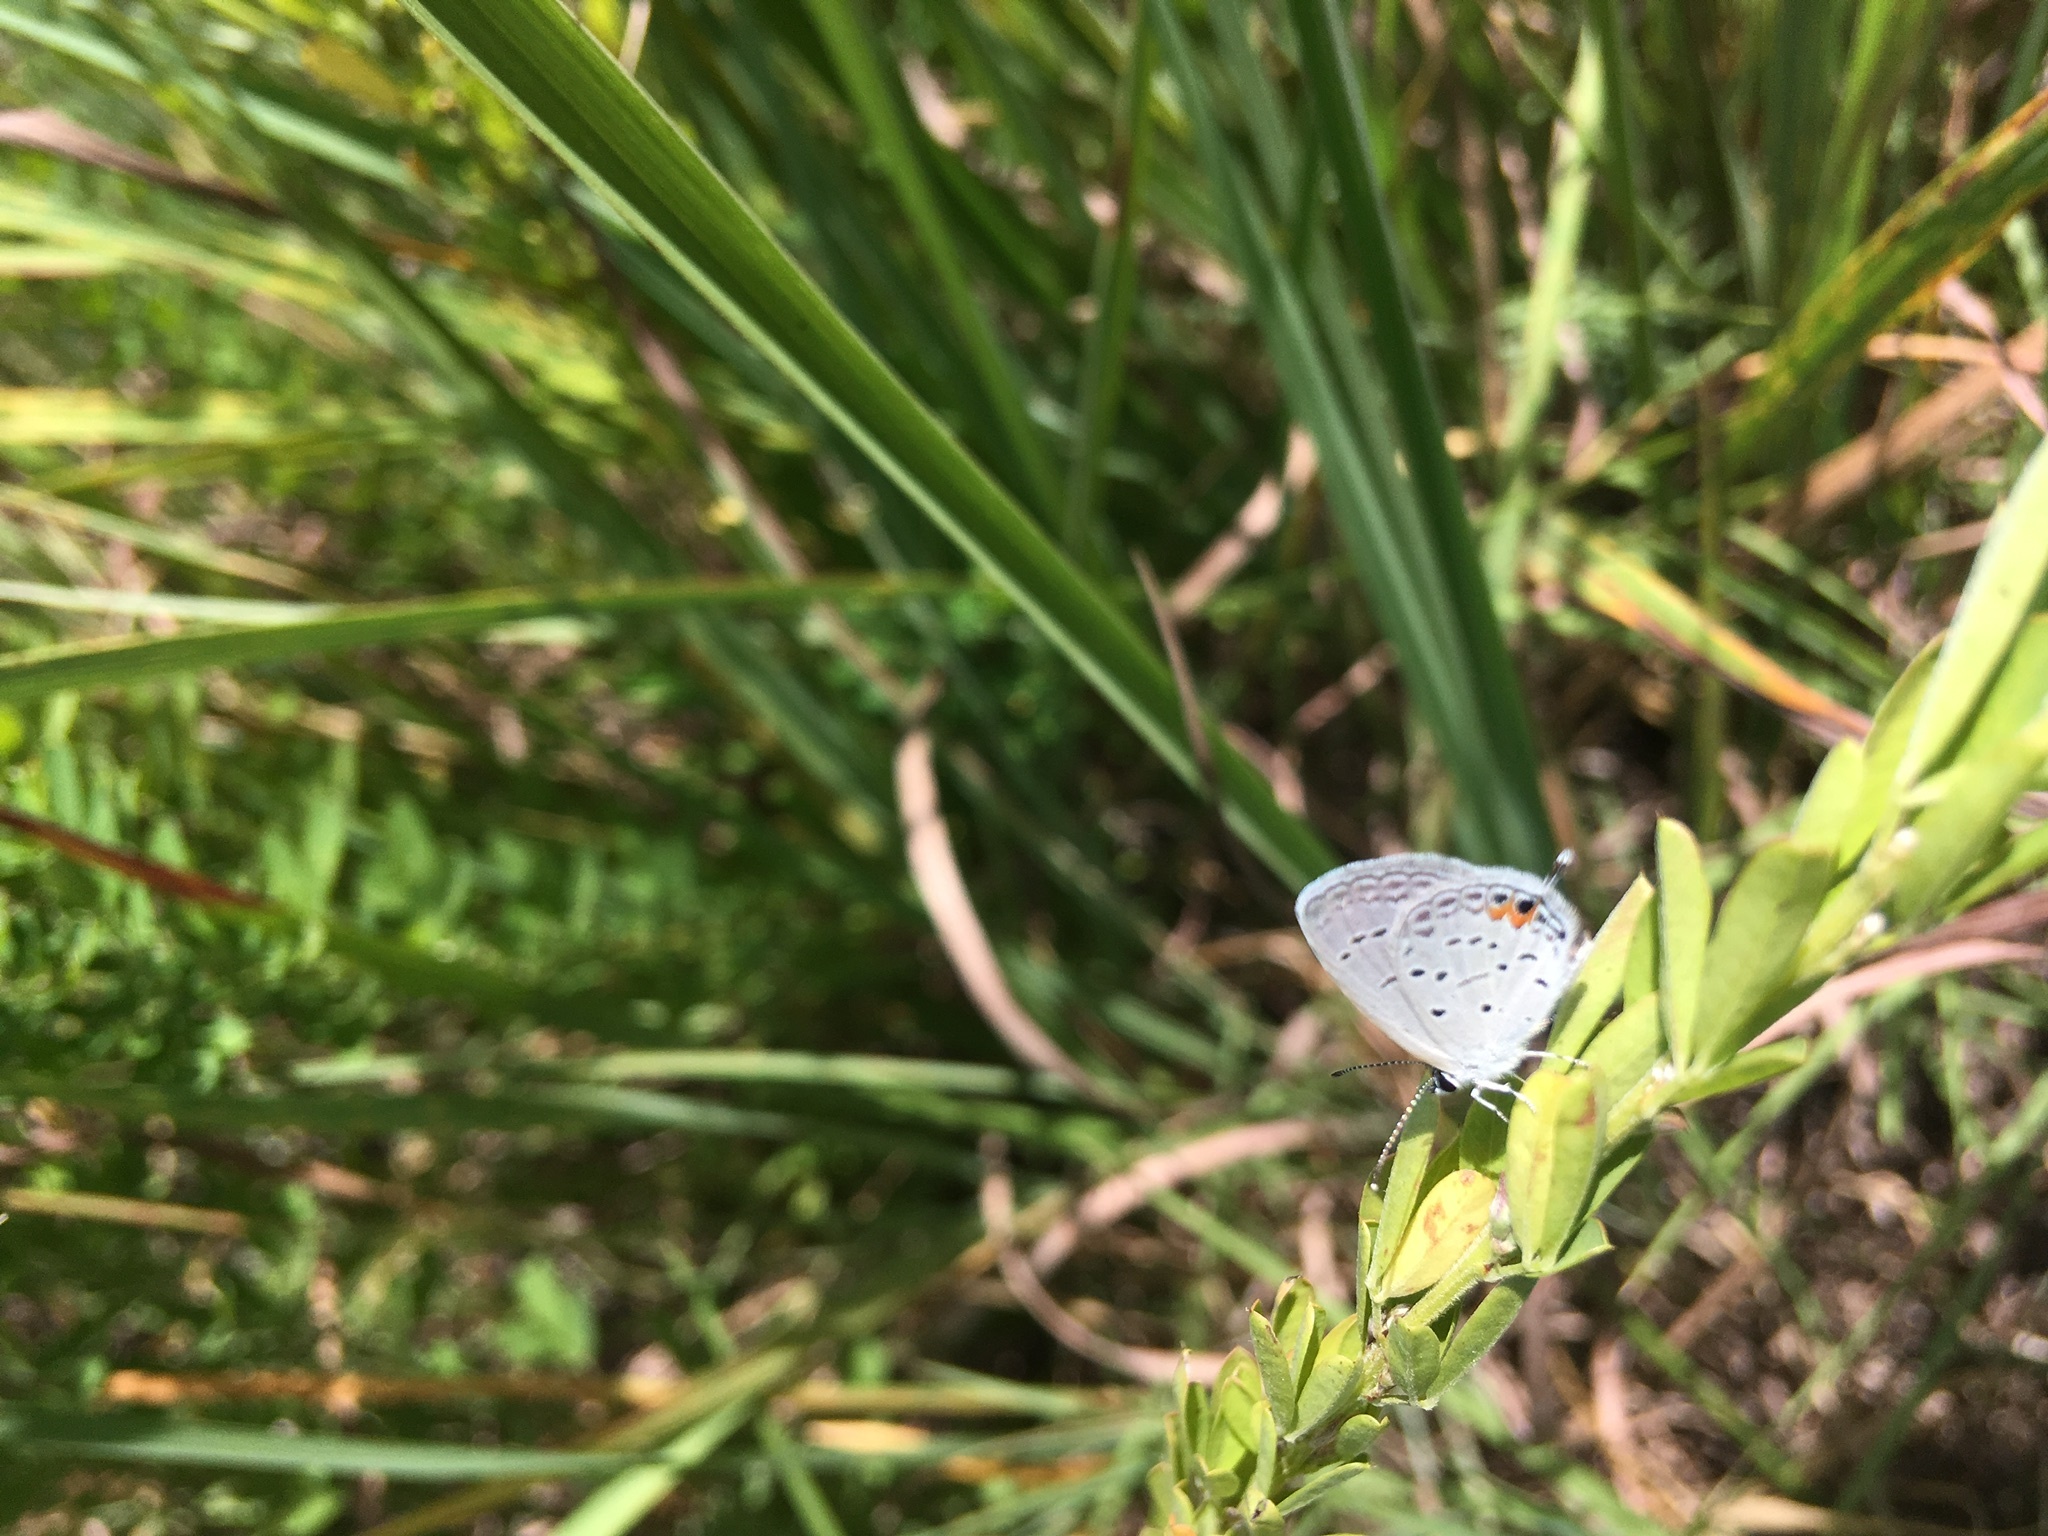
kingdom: Animalia
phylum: Arthropoda
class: Insecta
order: Lepidoptera
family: Lycaenidae
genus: Elkalyce
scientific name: Elkalyce comyntas
